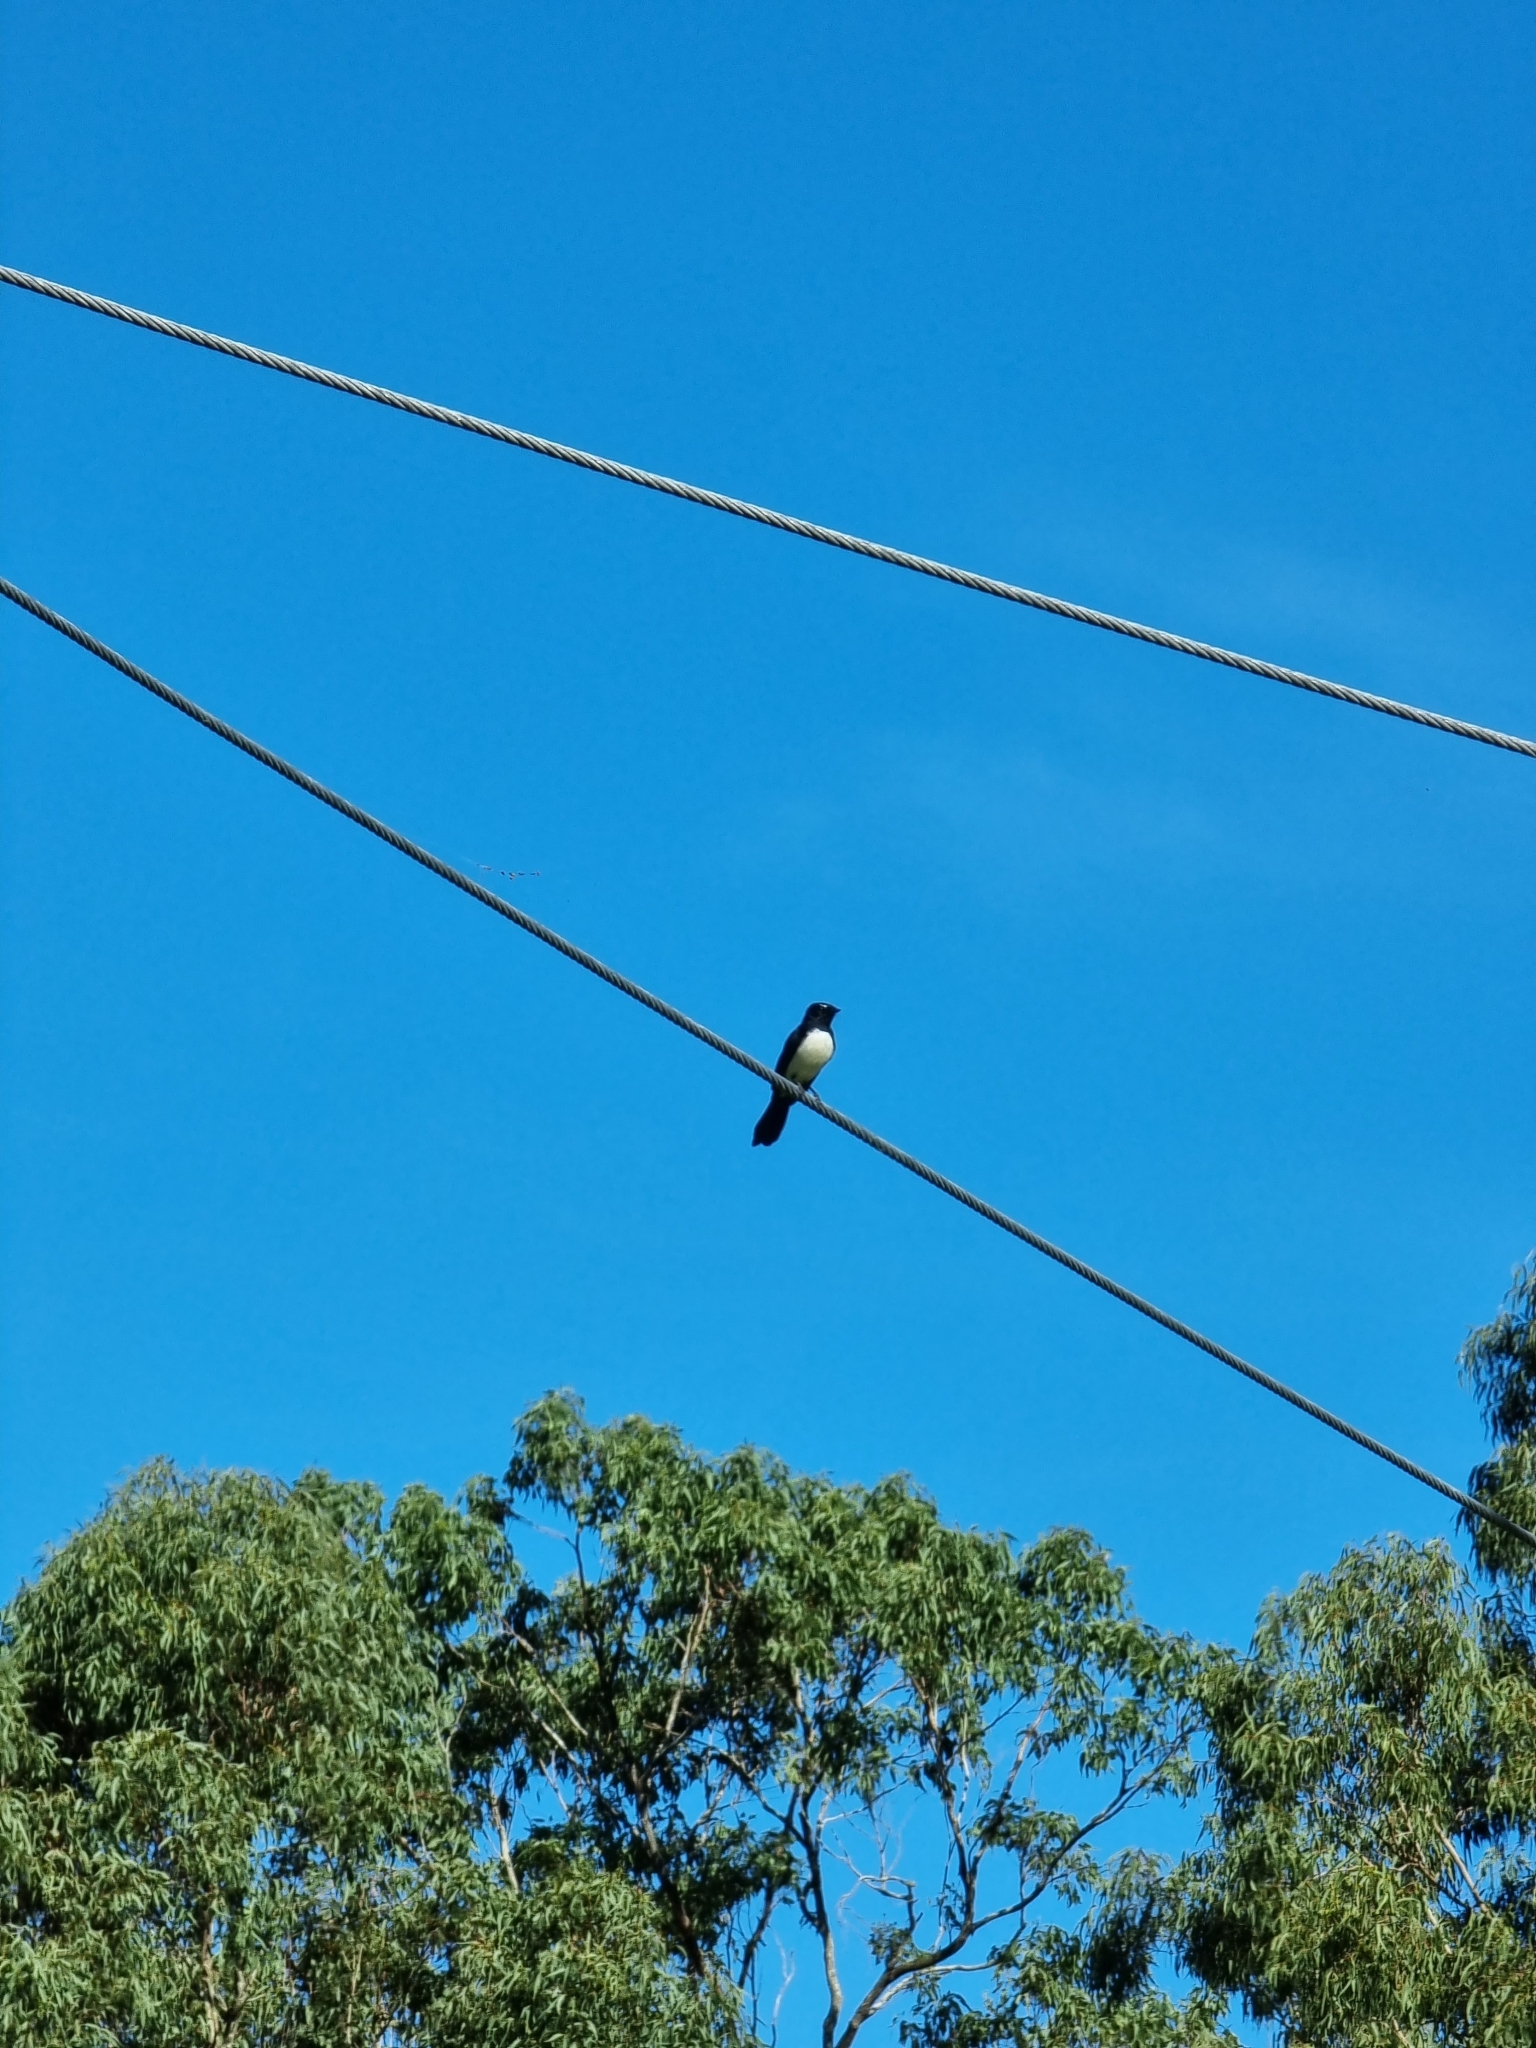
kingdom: Animalia
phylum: Chordata
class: Aves
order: Passeriformes
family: Rhipiduridae
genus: Rhipidura
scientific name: Rhipidura leucophrys
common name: Willie wagtail
